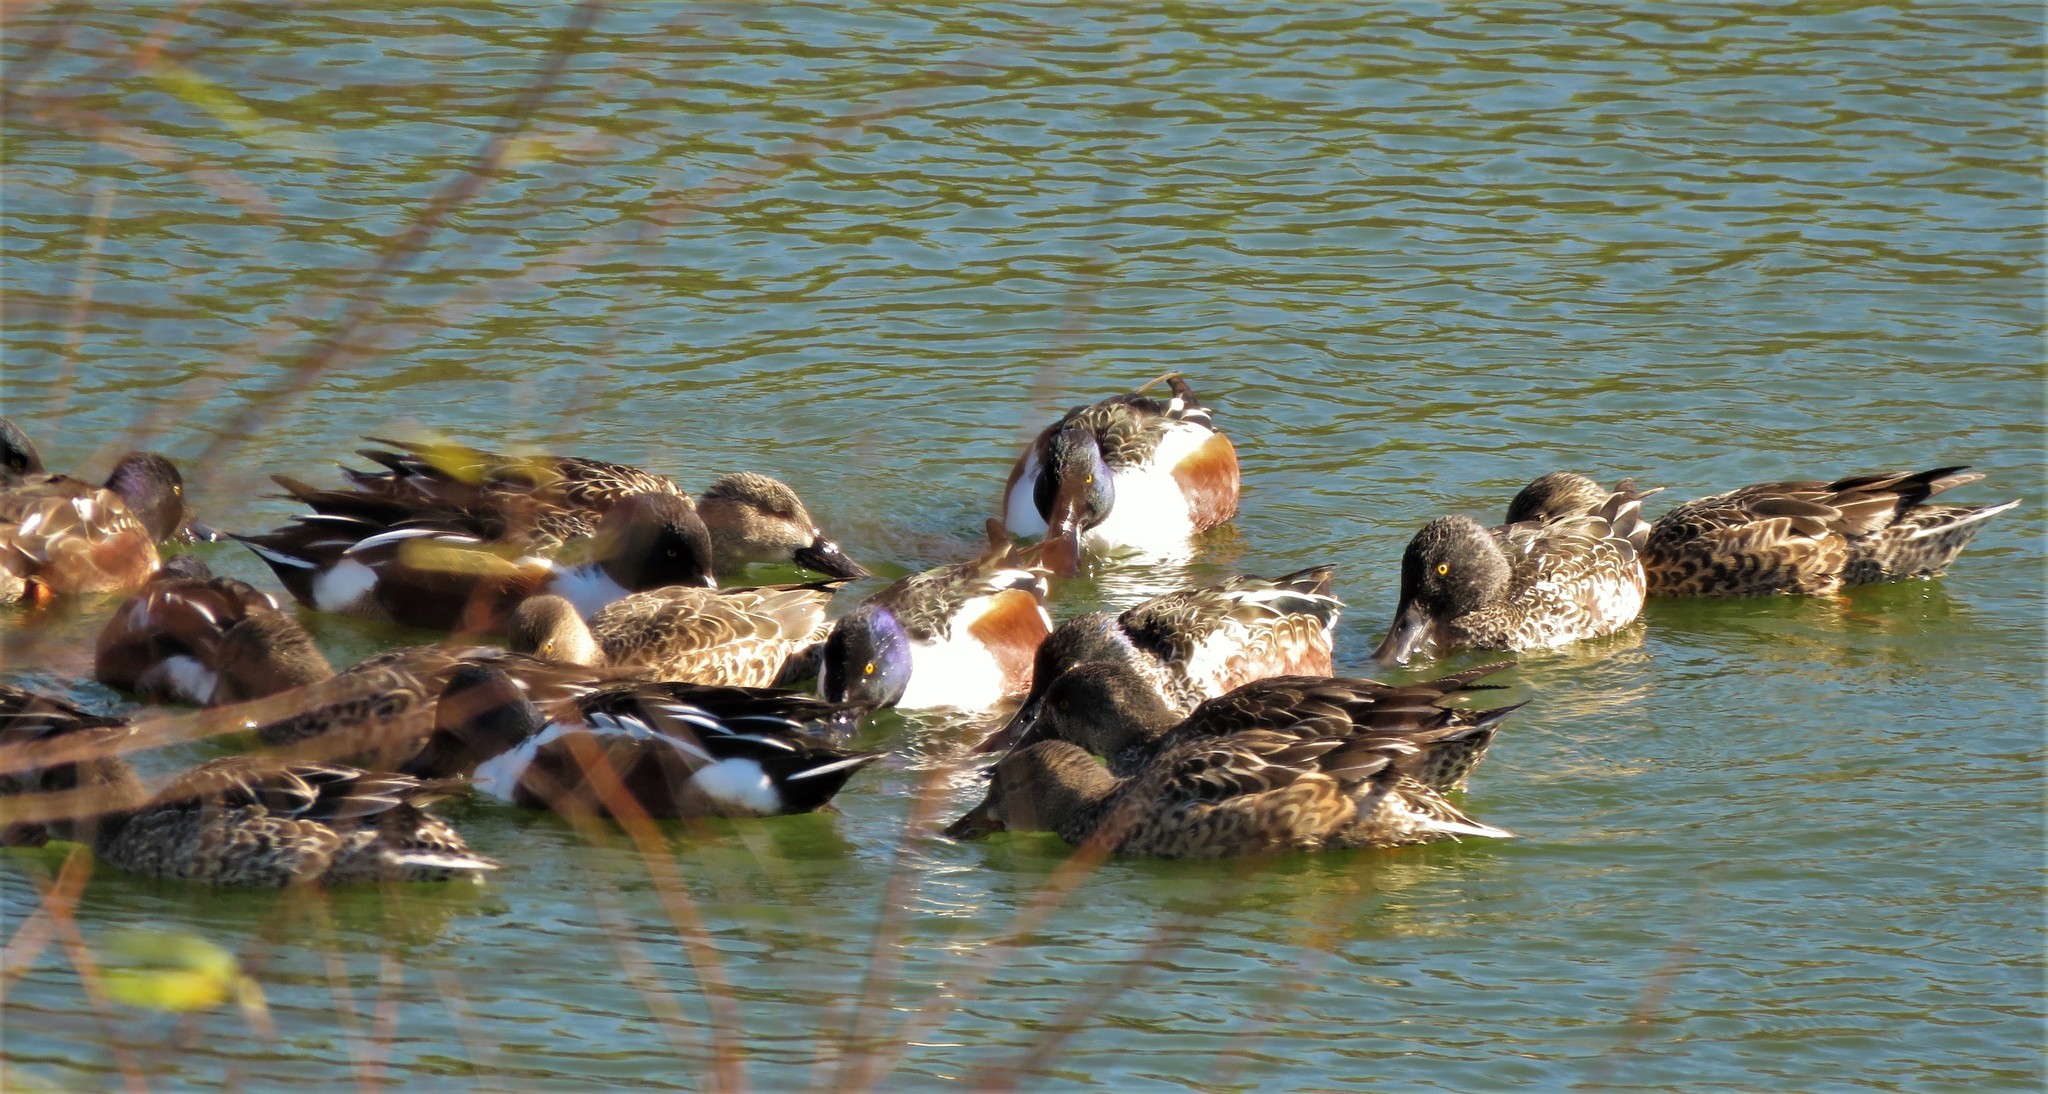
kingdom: Animalia
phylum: Chordata
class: Aves
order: Anseriformes
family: Anatidae
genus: Spatula
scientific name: Spatula clypeata
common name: Northern shoveler
